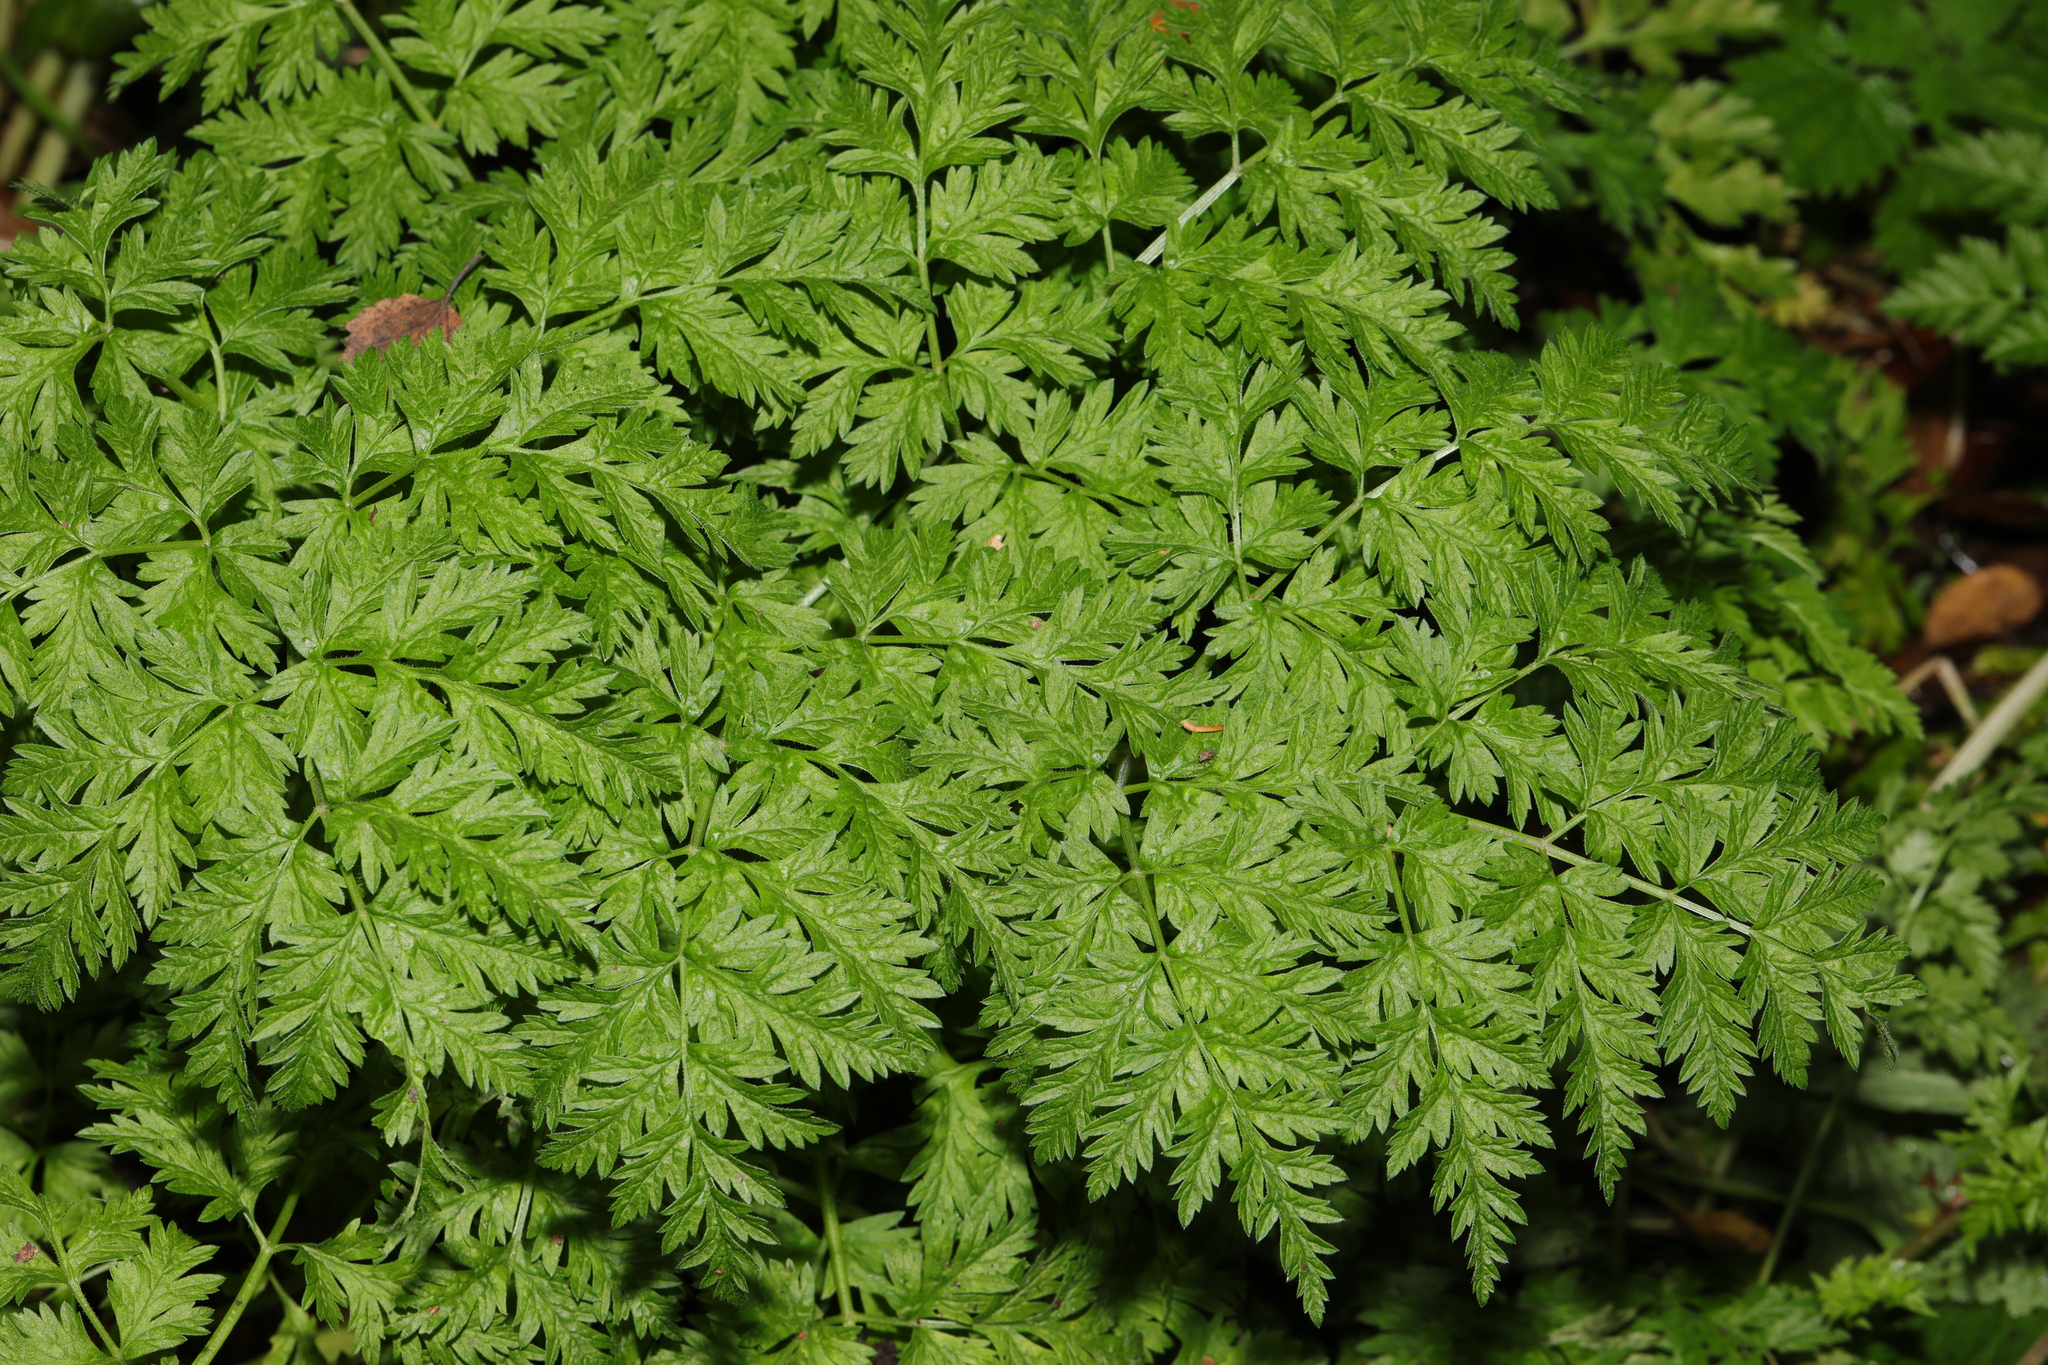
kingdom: Plantae
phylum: Tracheophyta
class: Magnoliopsida
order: Apiales
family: Apiaceae
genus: Anthriscus
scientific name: Anthriscus sylvestris
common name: Cow parsley
